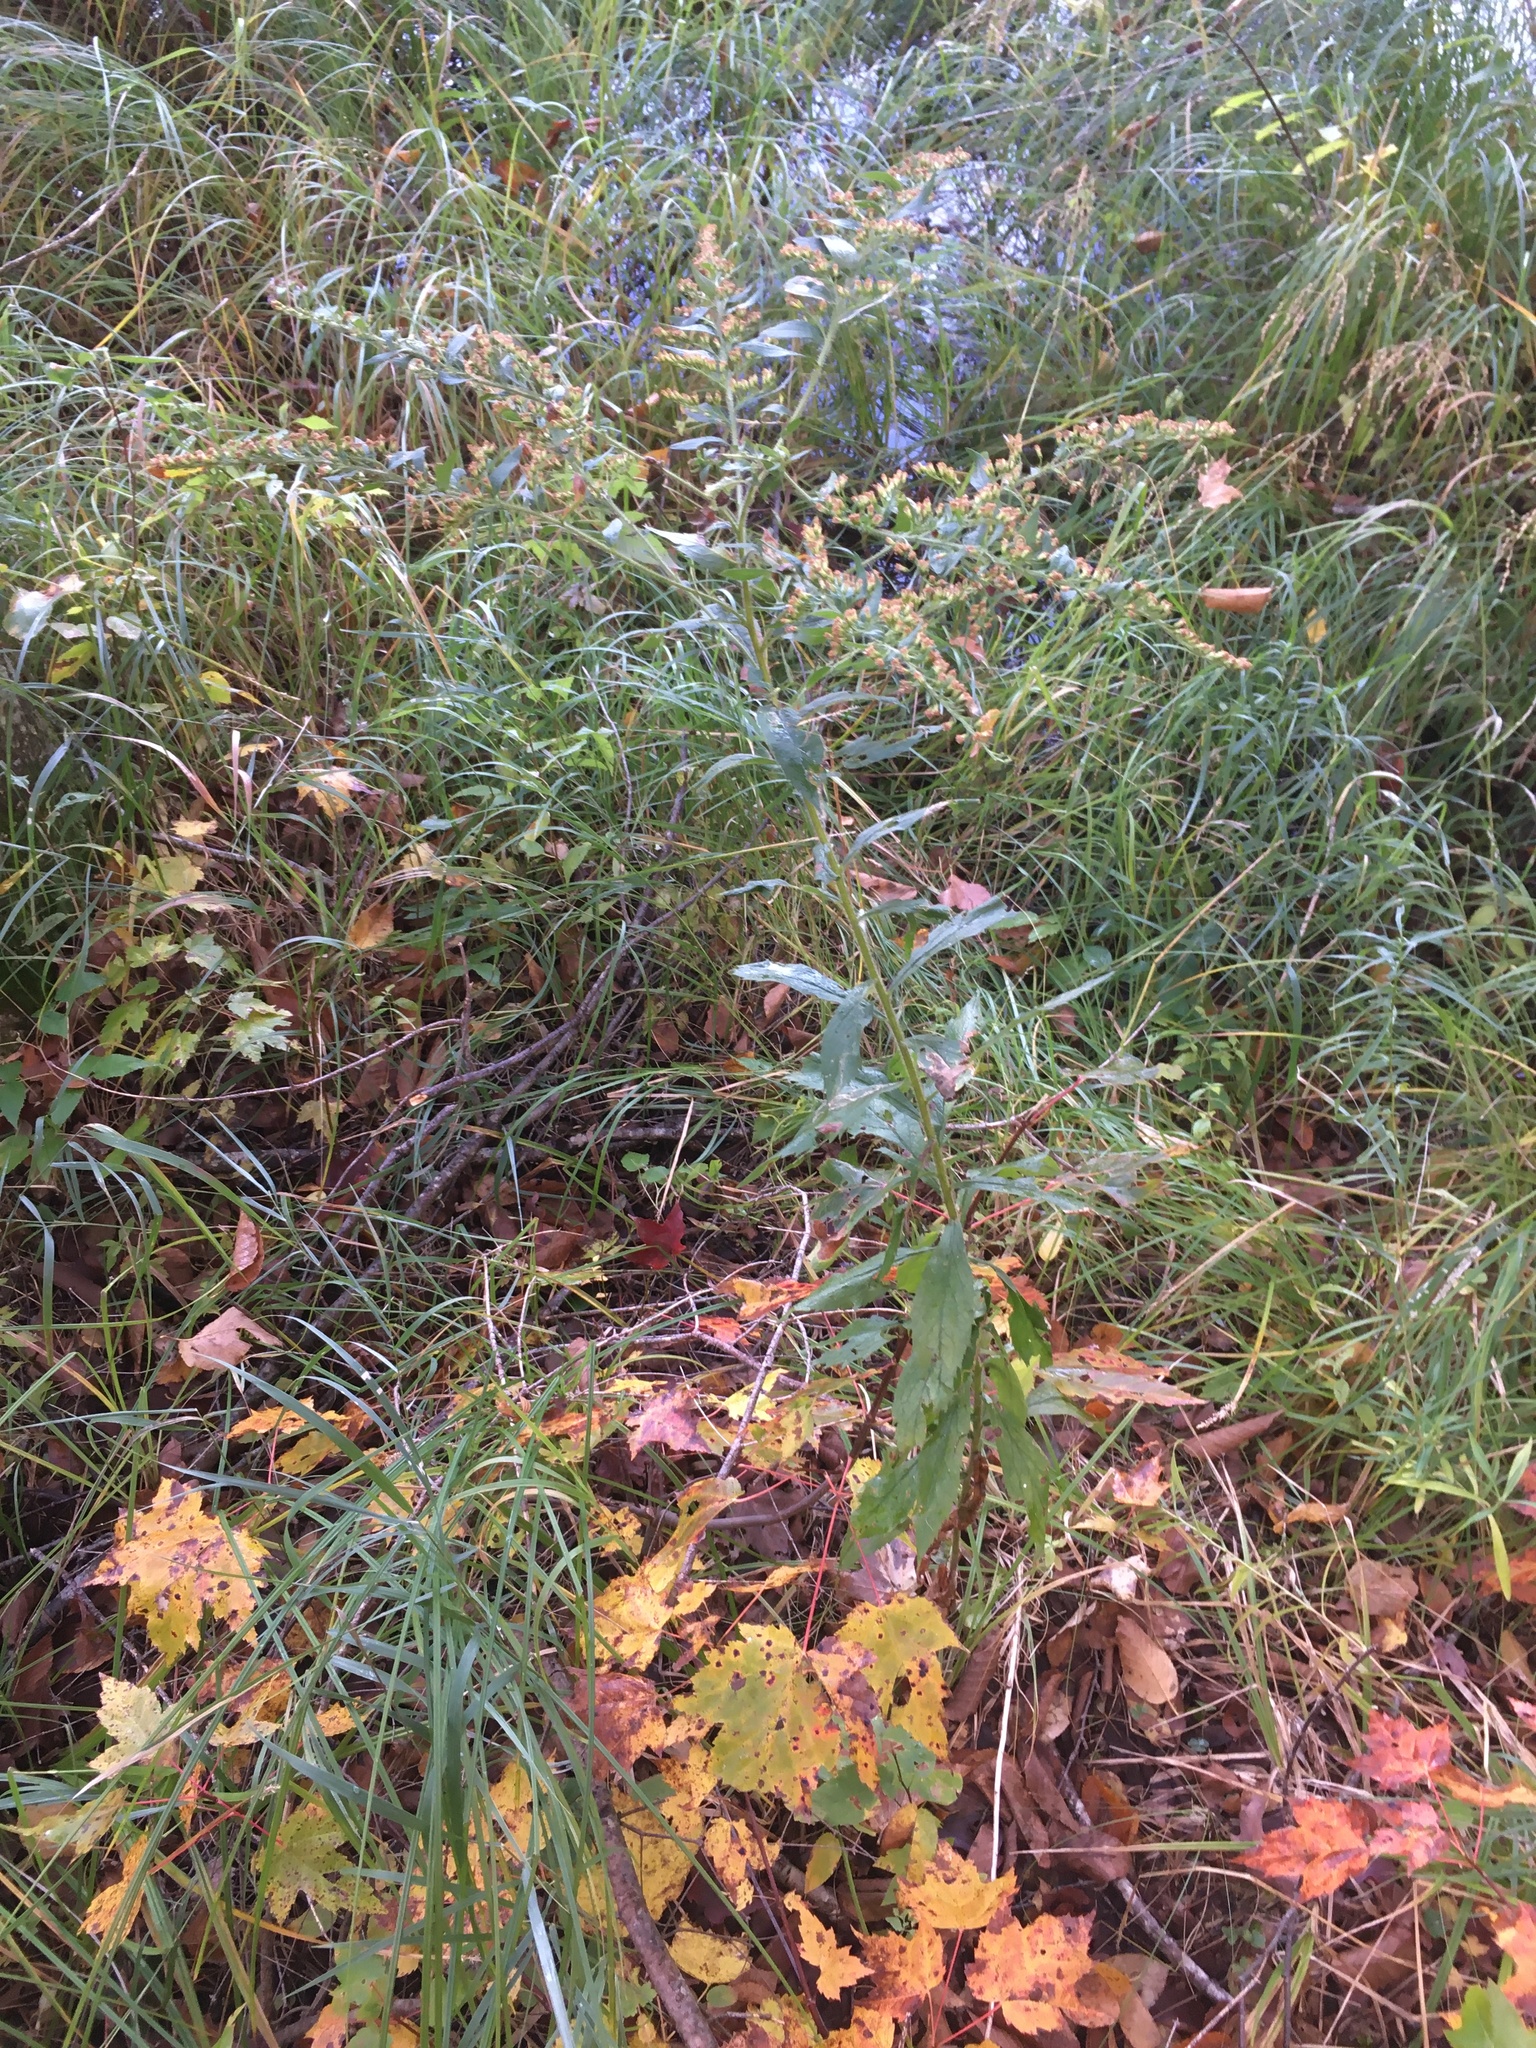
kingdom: Plantae
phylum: Tracheophyta
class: Magnoliopsida
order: Asterales
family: Asteraceae
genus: Solidago
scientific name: Solidago rugosa
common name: Rough-stemmed goldenrod
